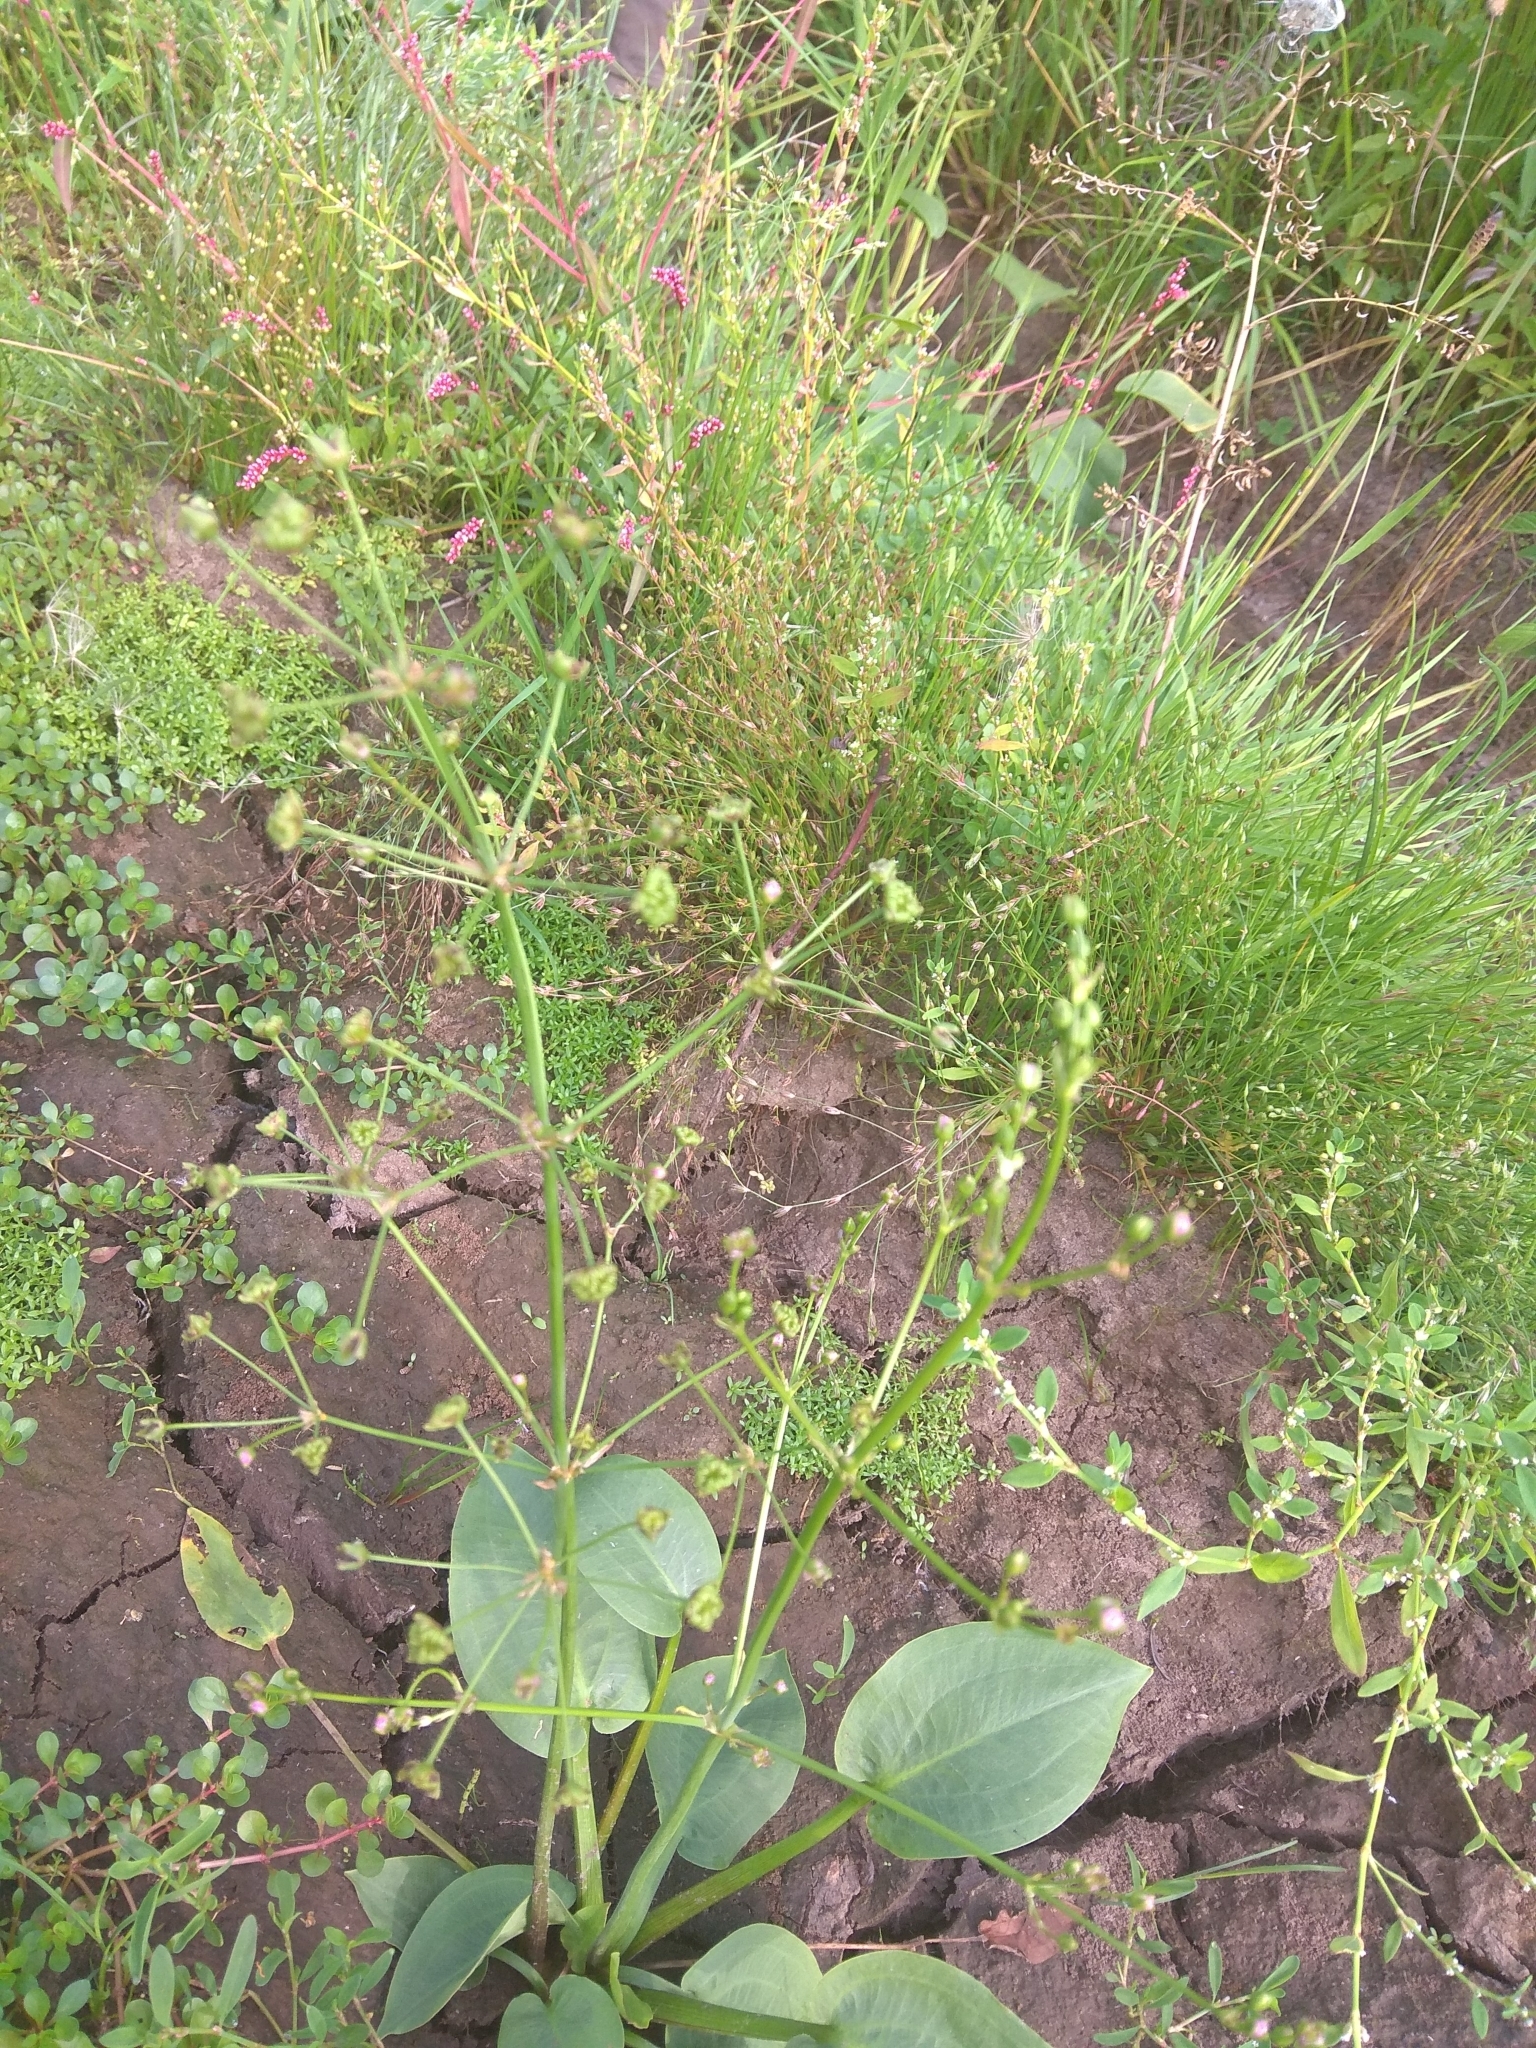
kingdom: Plantae
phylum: Tracheophyta
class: Liliopsida
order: Alismatales
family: Alismataceae
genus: Alisma
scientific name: Alisma plantago-aquatica
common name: Water-plantain
